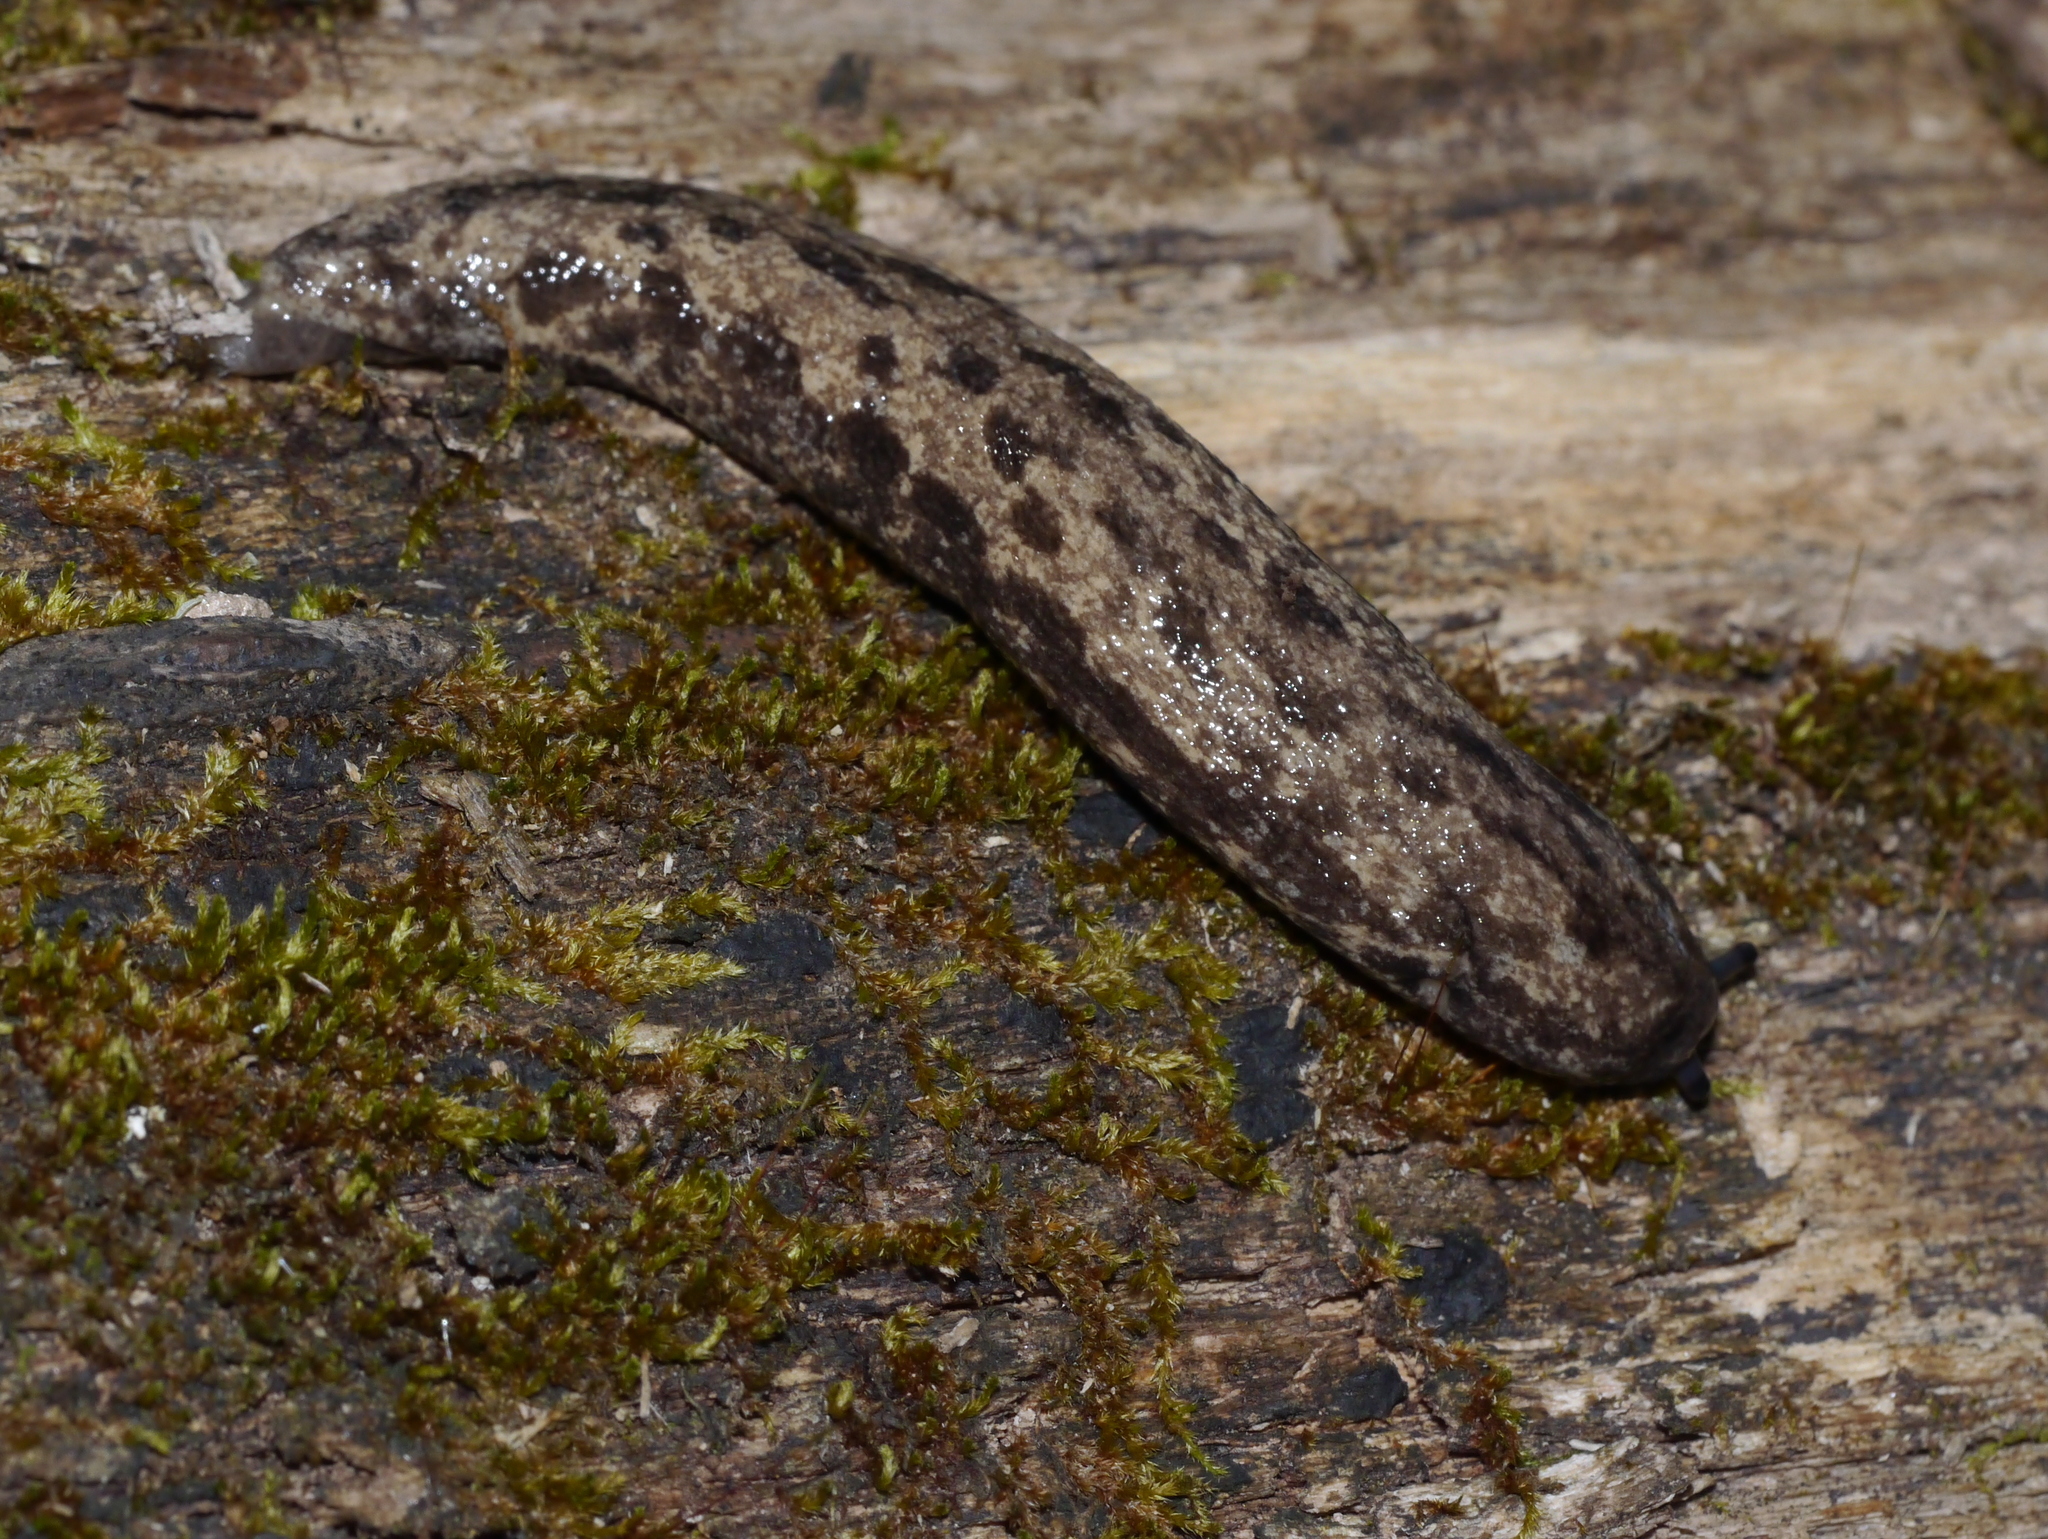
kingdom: Animalia
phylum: Mollusca
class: Gastropoda
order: Stylommatophora
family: Philomycidae
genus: Megapallifera
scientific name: Megapallifera mutabilis
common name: Changeable mantleslug
